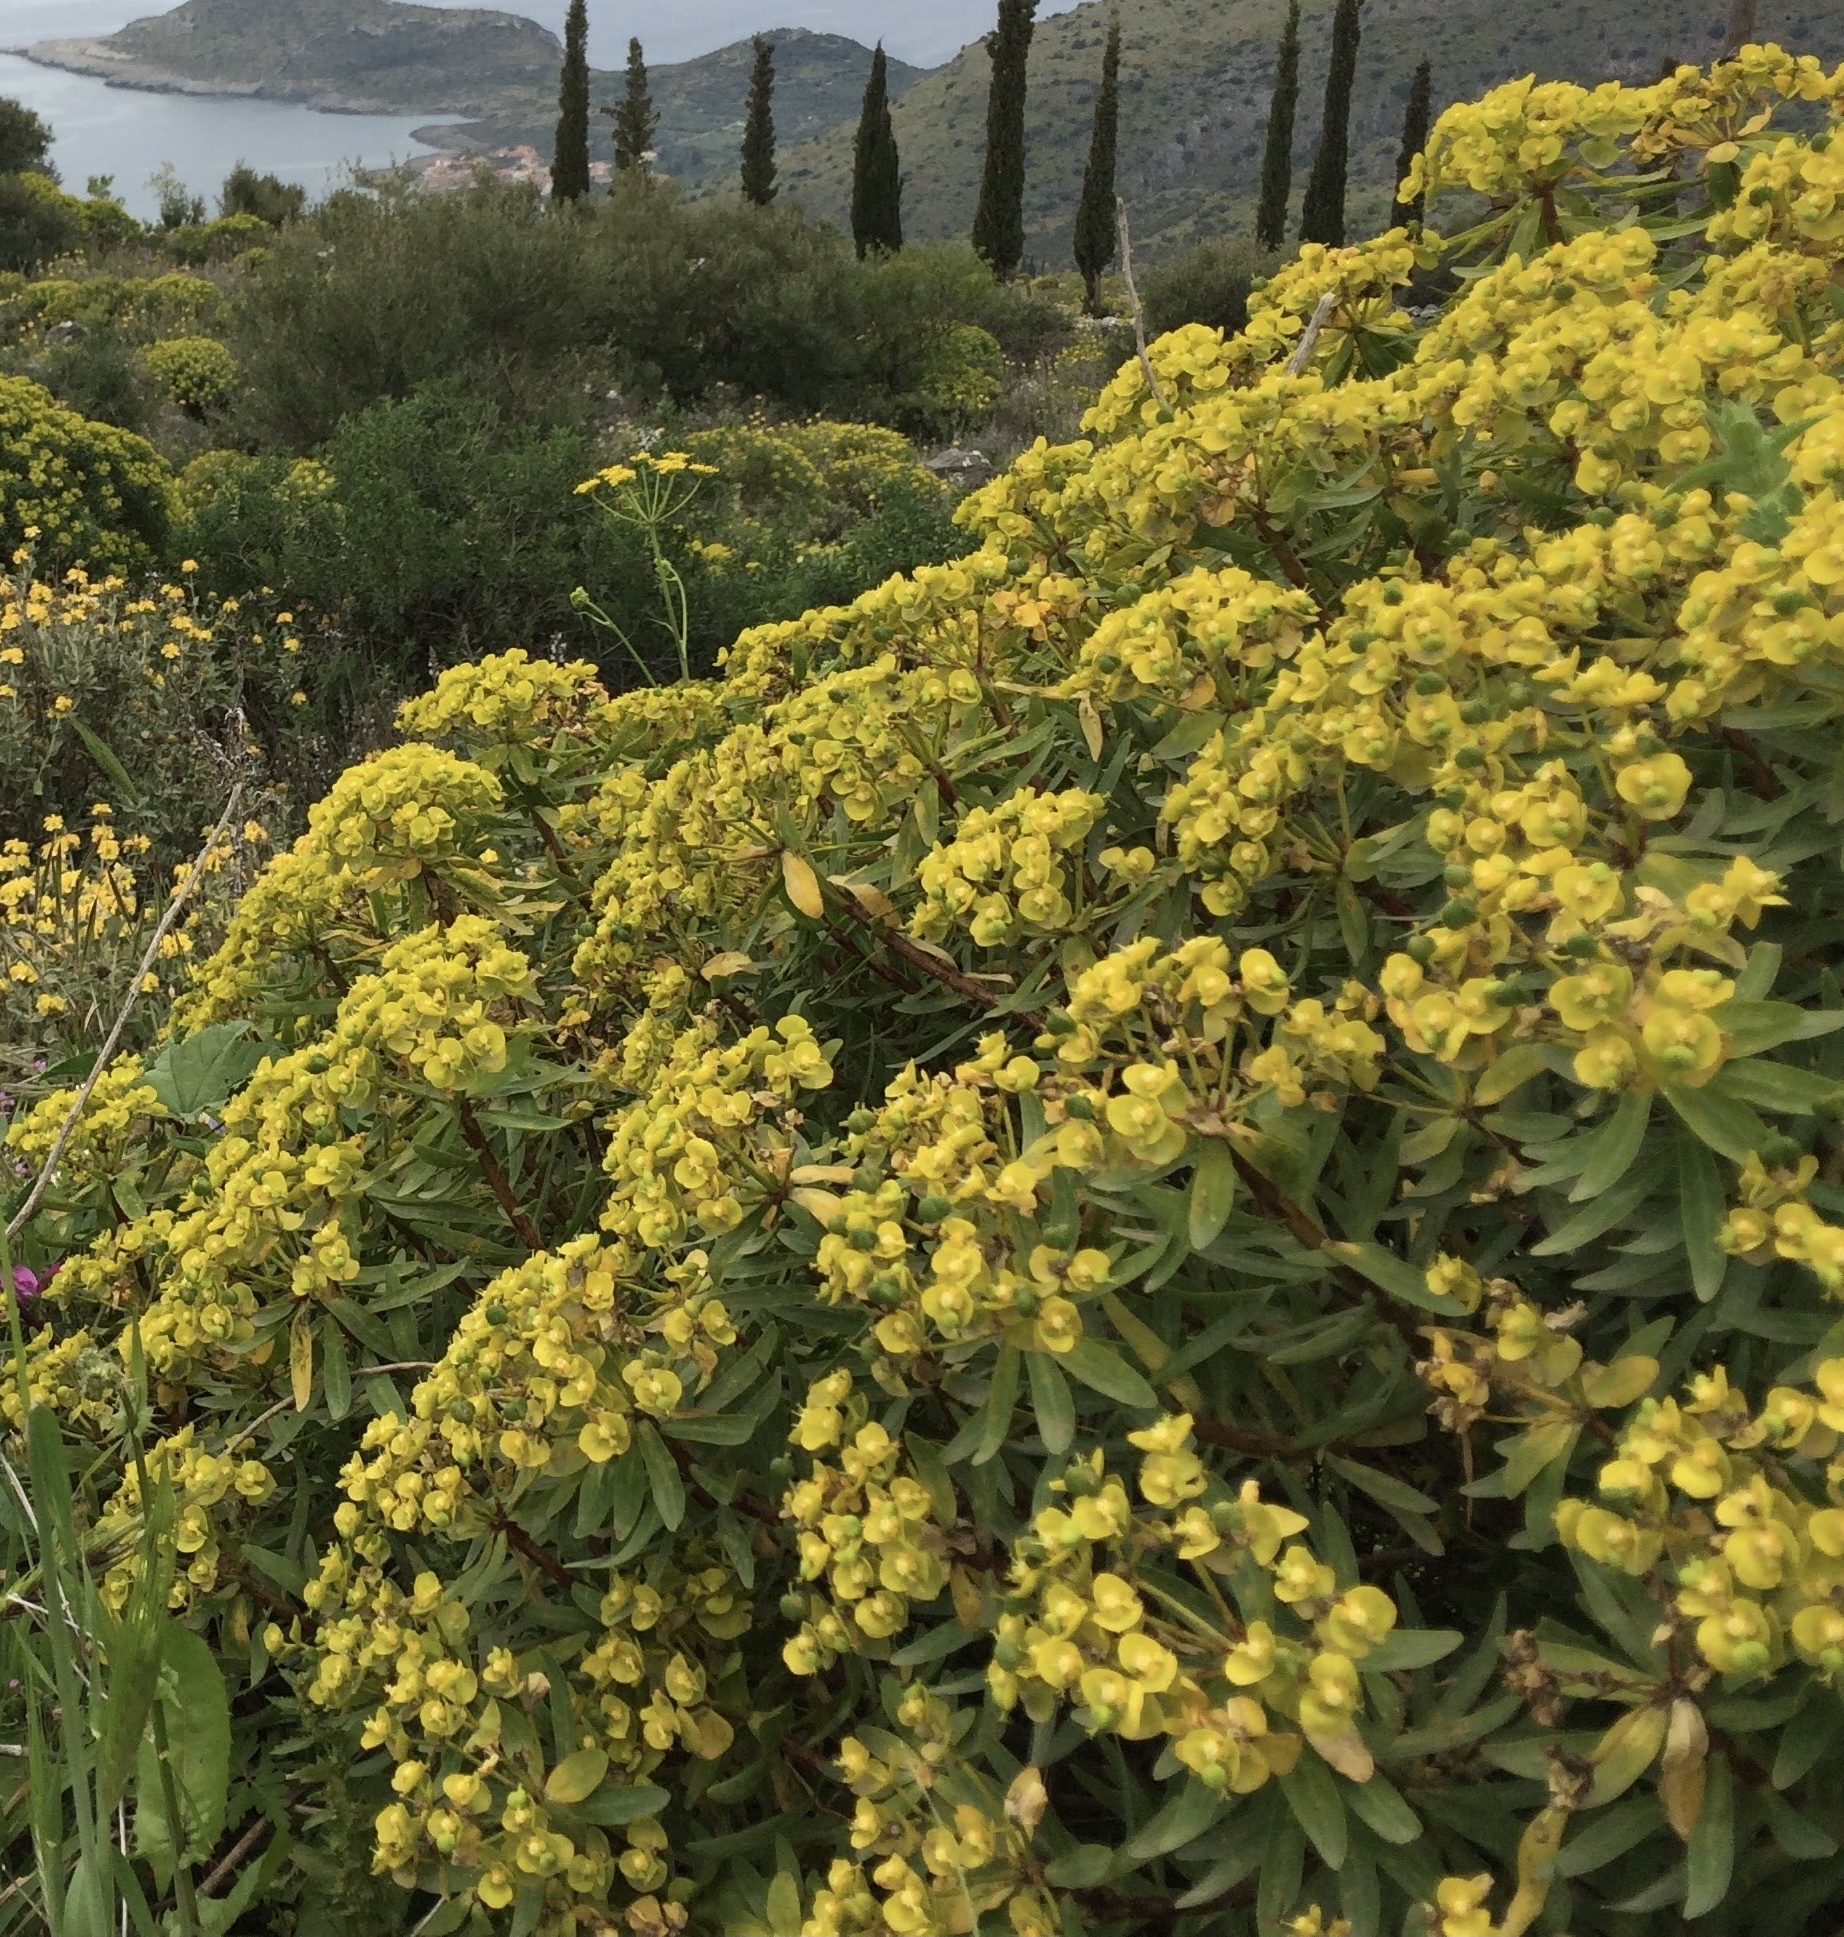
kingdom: Plantae
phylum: Tracheophyta
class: Magnoliopsida
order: Malpighiales
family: Euphorbiaceae
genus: Euphorbia
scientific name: Euphorbia dendroides
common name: Tree spurge
